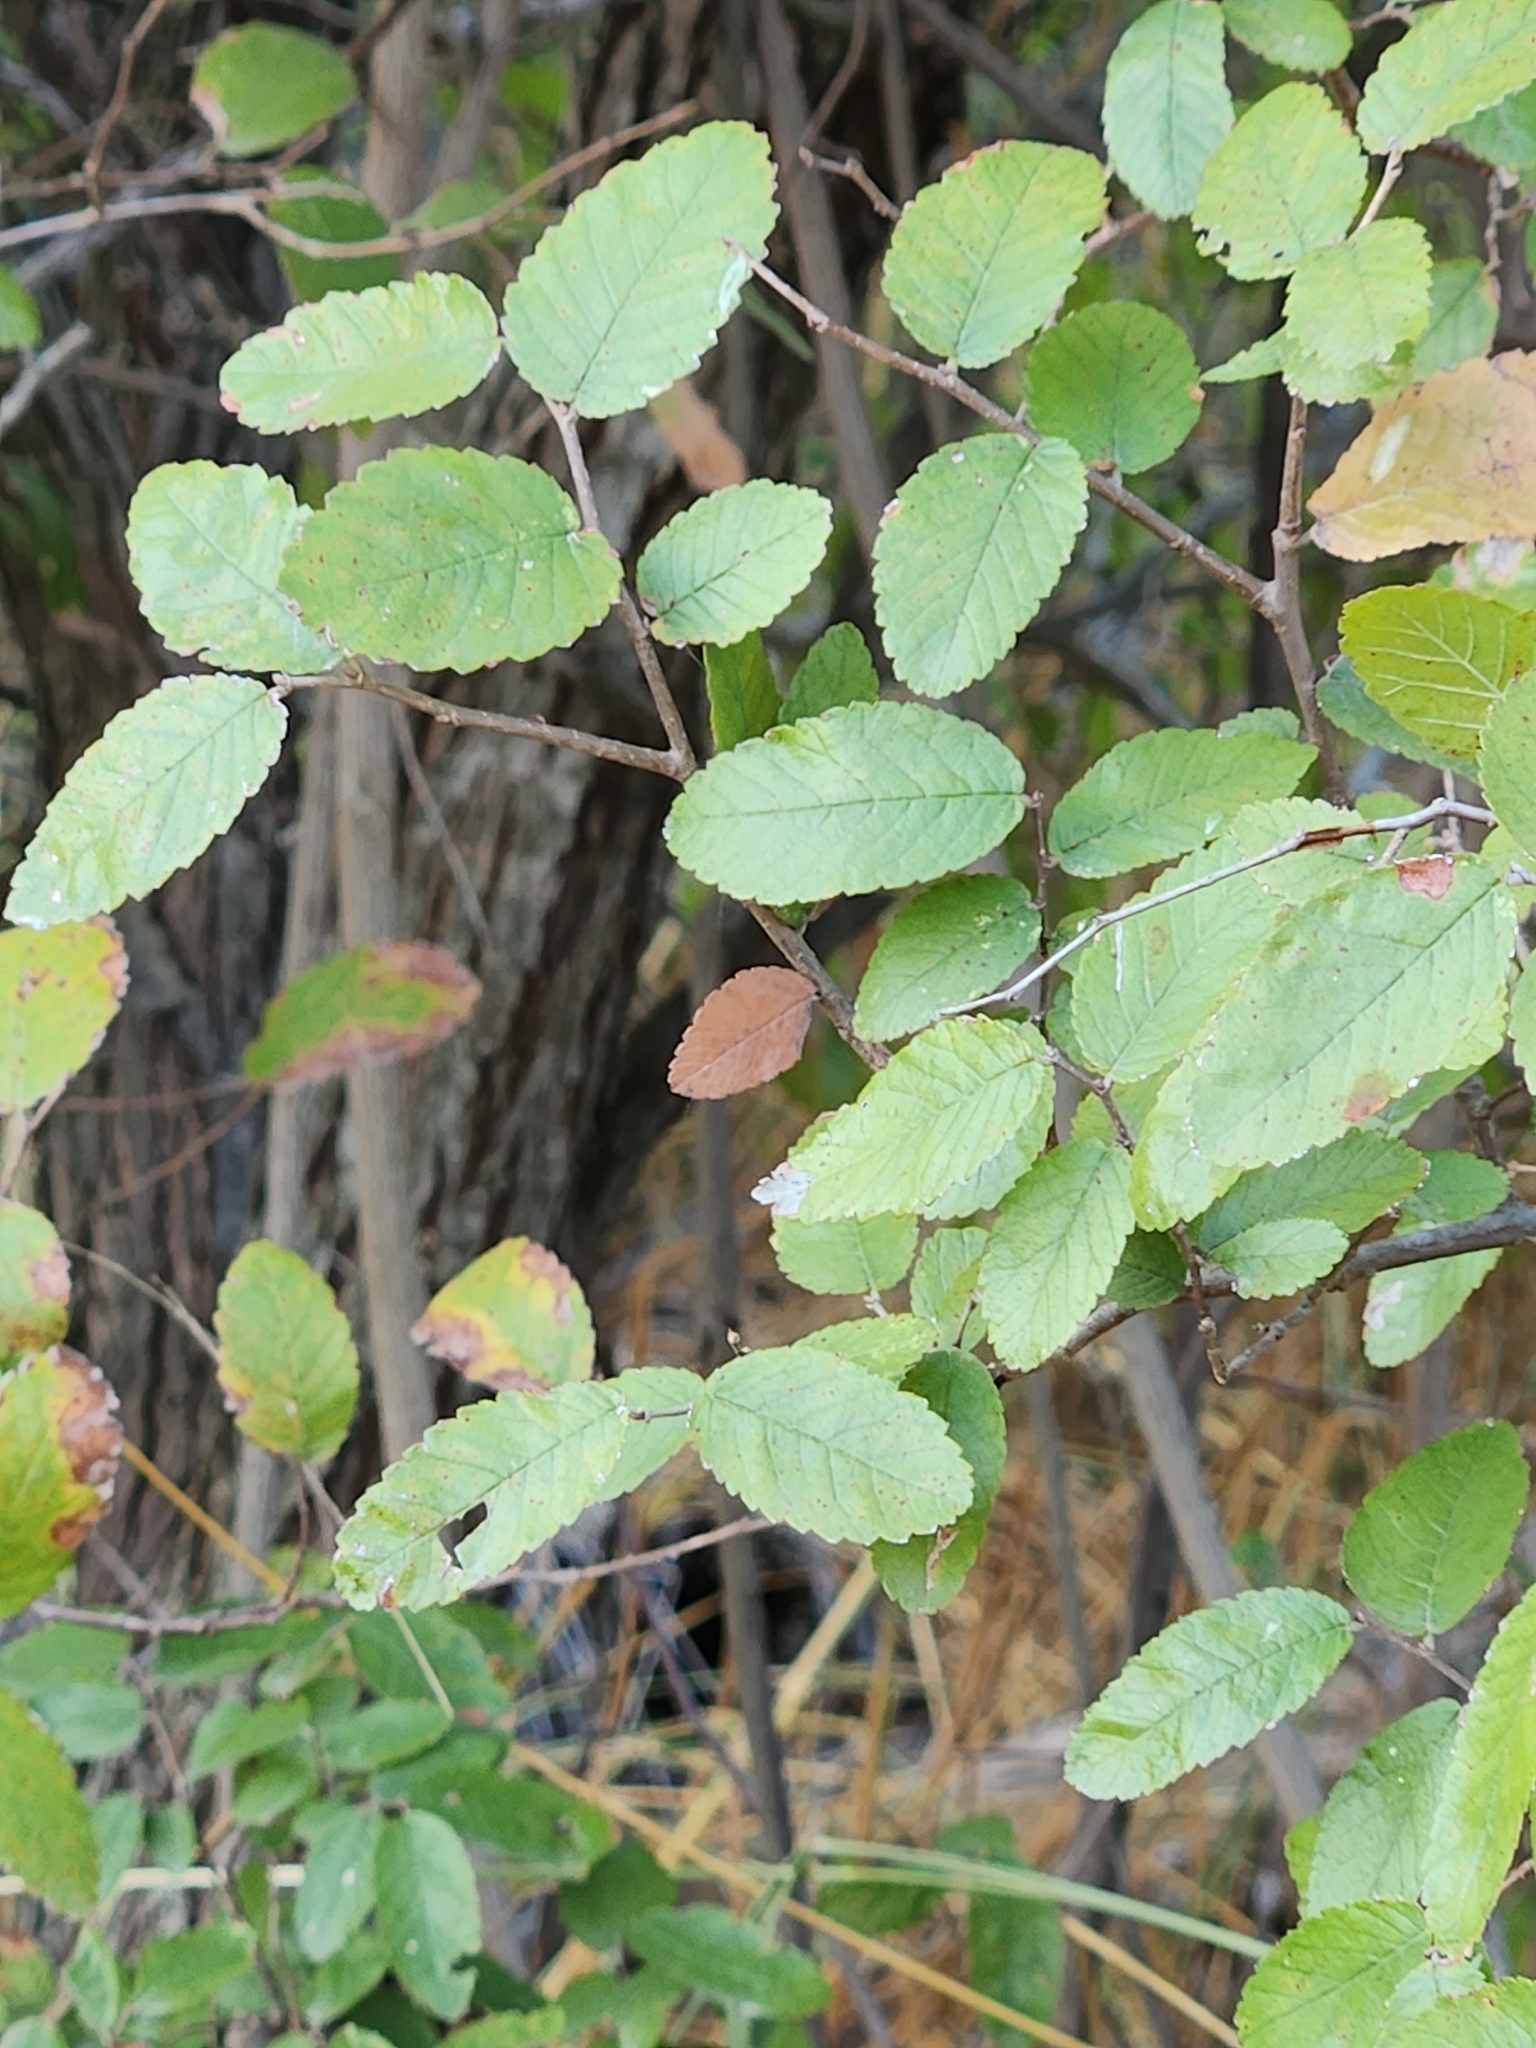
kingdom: Plantae
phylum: Tracheophyta
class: Magnoliopsida
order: Rosales
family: Ulmaceae
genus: Ulmus
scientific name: Ulmus crassifolia
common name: Basket elm
